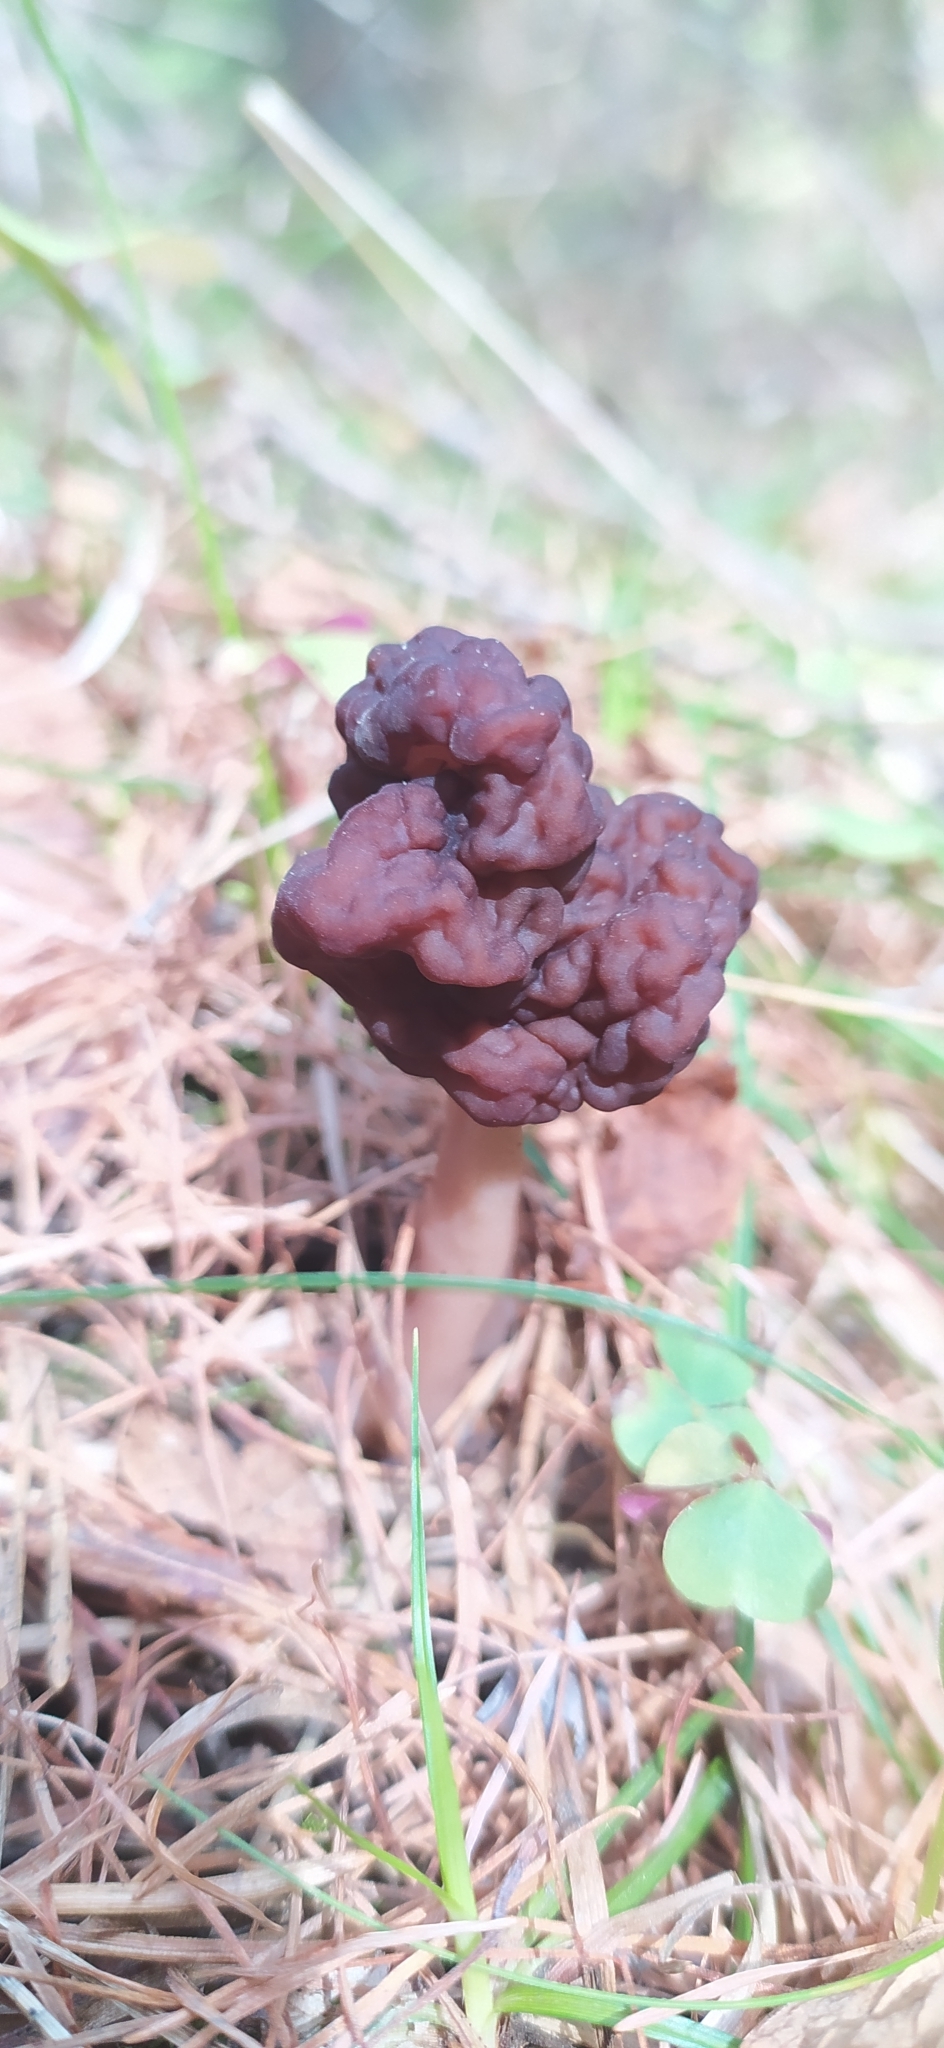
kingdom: Fungi
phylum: Ascomycota
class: Pezizomycetes
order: Pezizales
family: Discinaceae
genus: Gyromitra
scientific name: Gyromitra esculenta
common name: False morel
